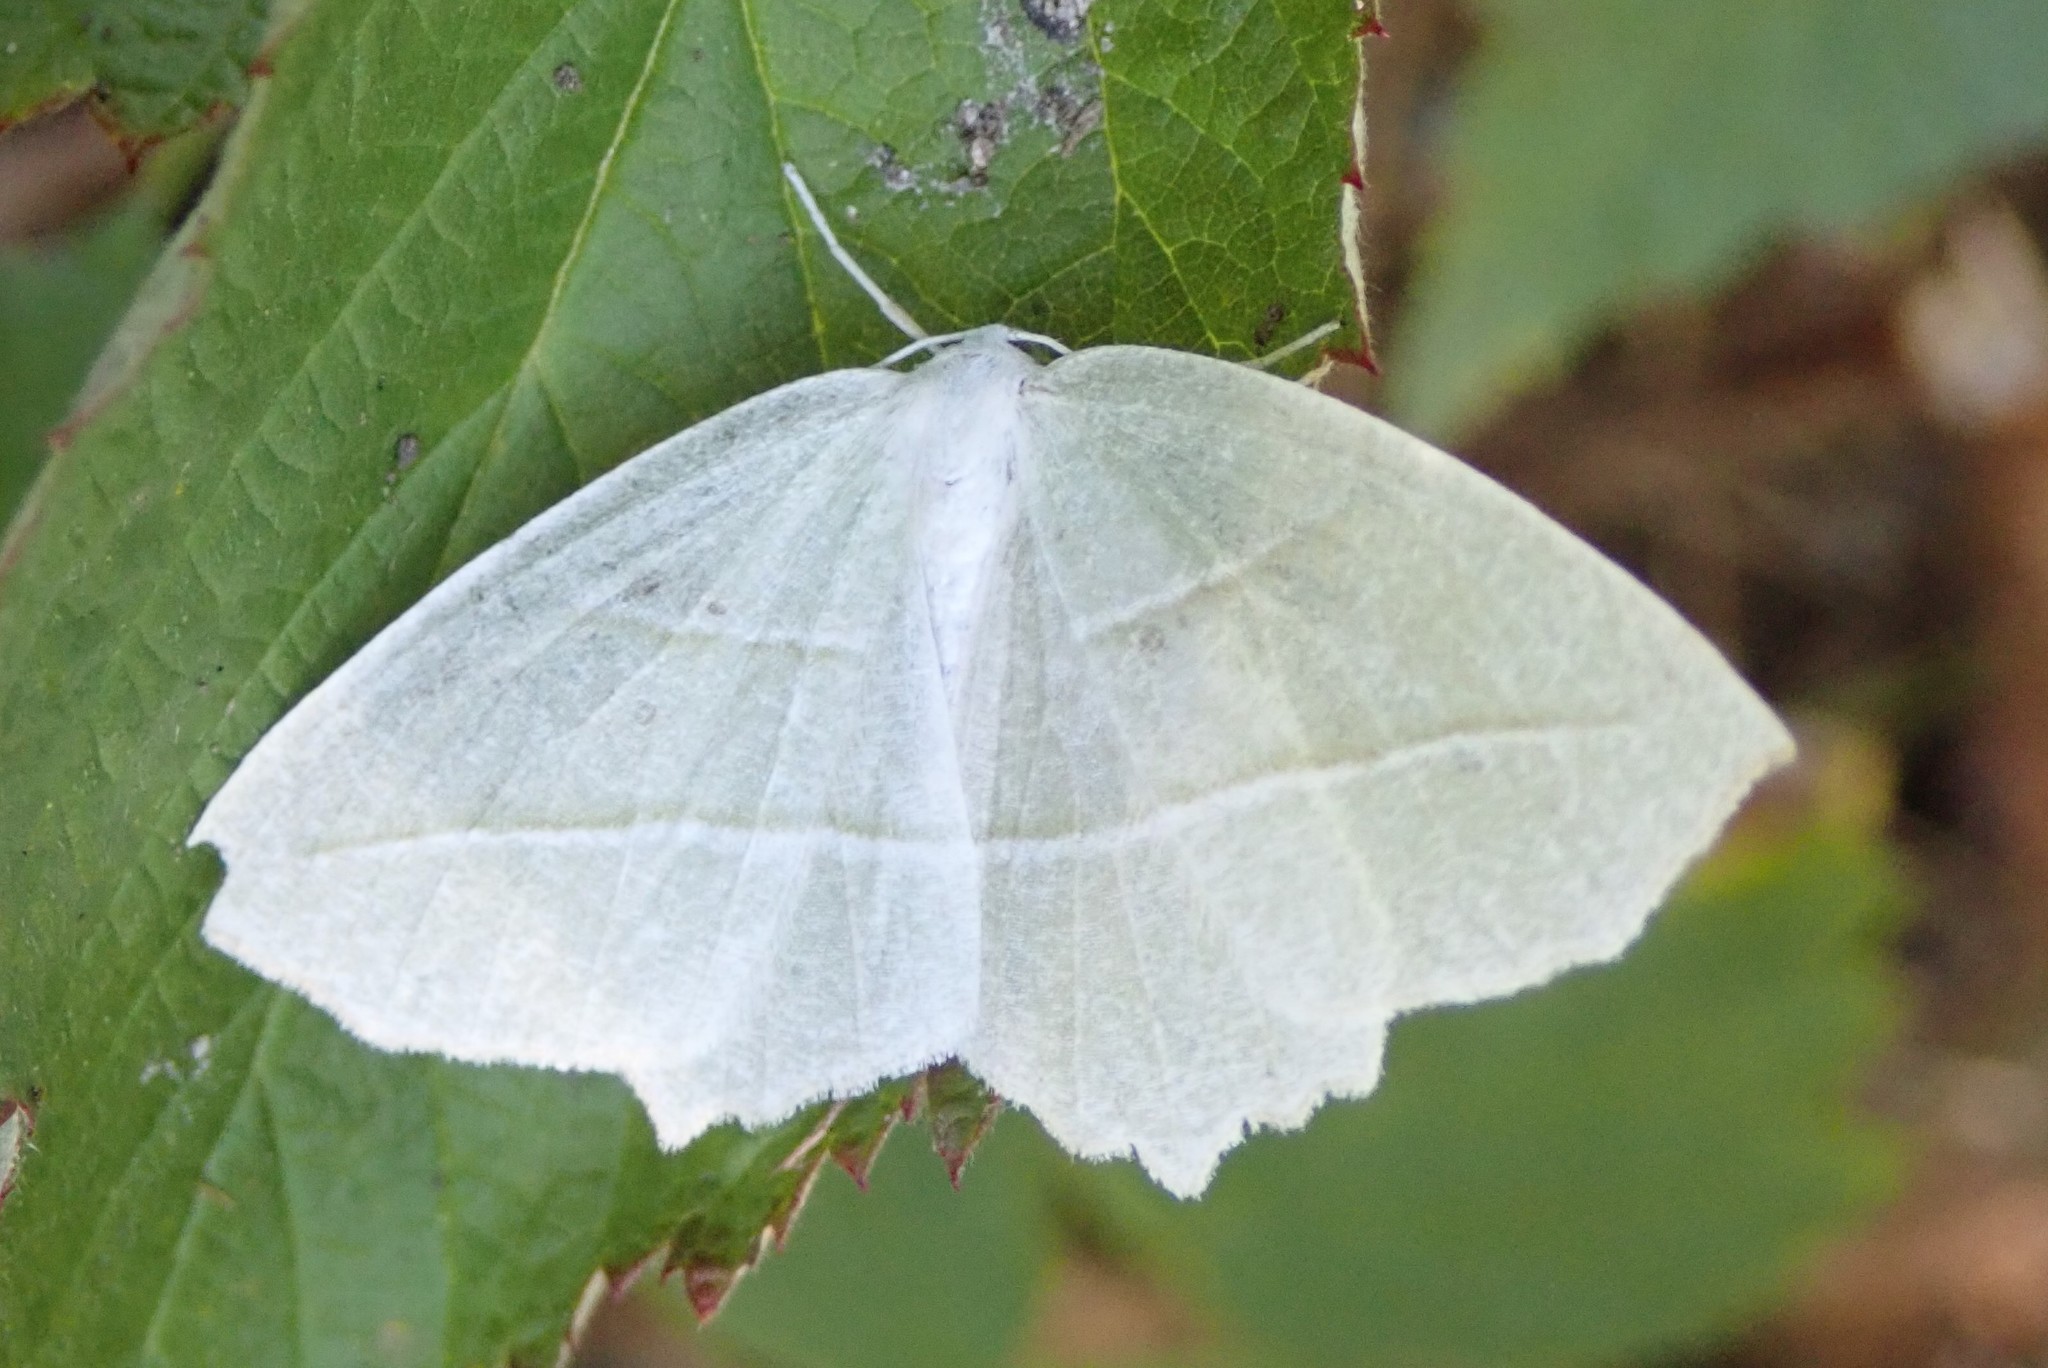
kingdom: Animalia
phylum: Arthropoda
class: Insecta
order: Lepidoptera
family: Geometridae
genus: Campaea
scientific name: Campaea perlata
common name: Fringed looper
